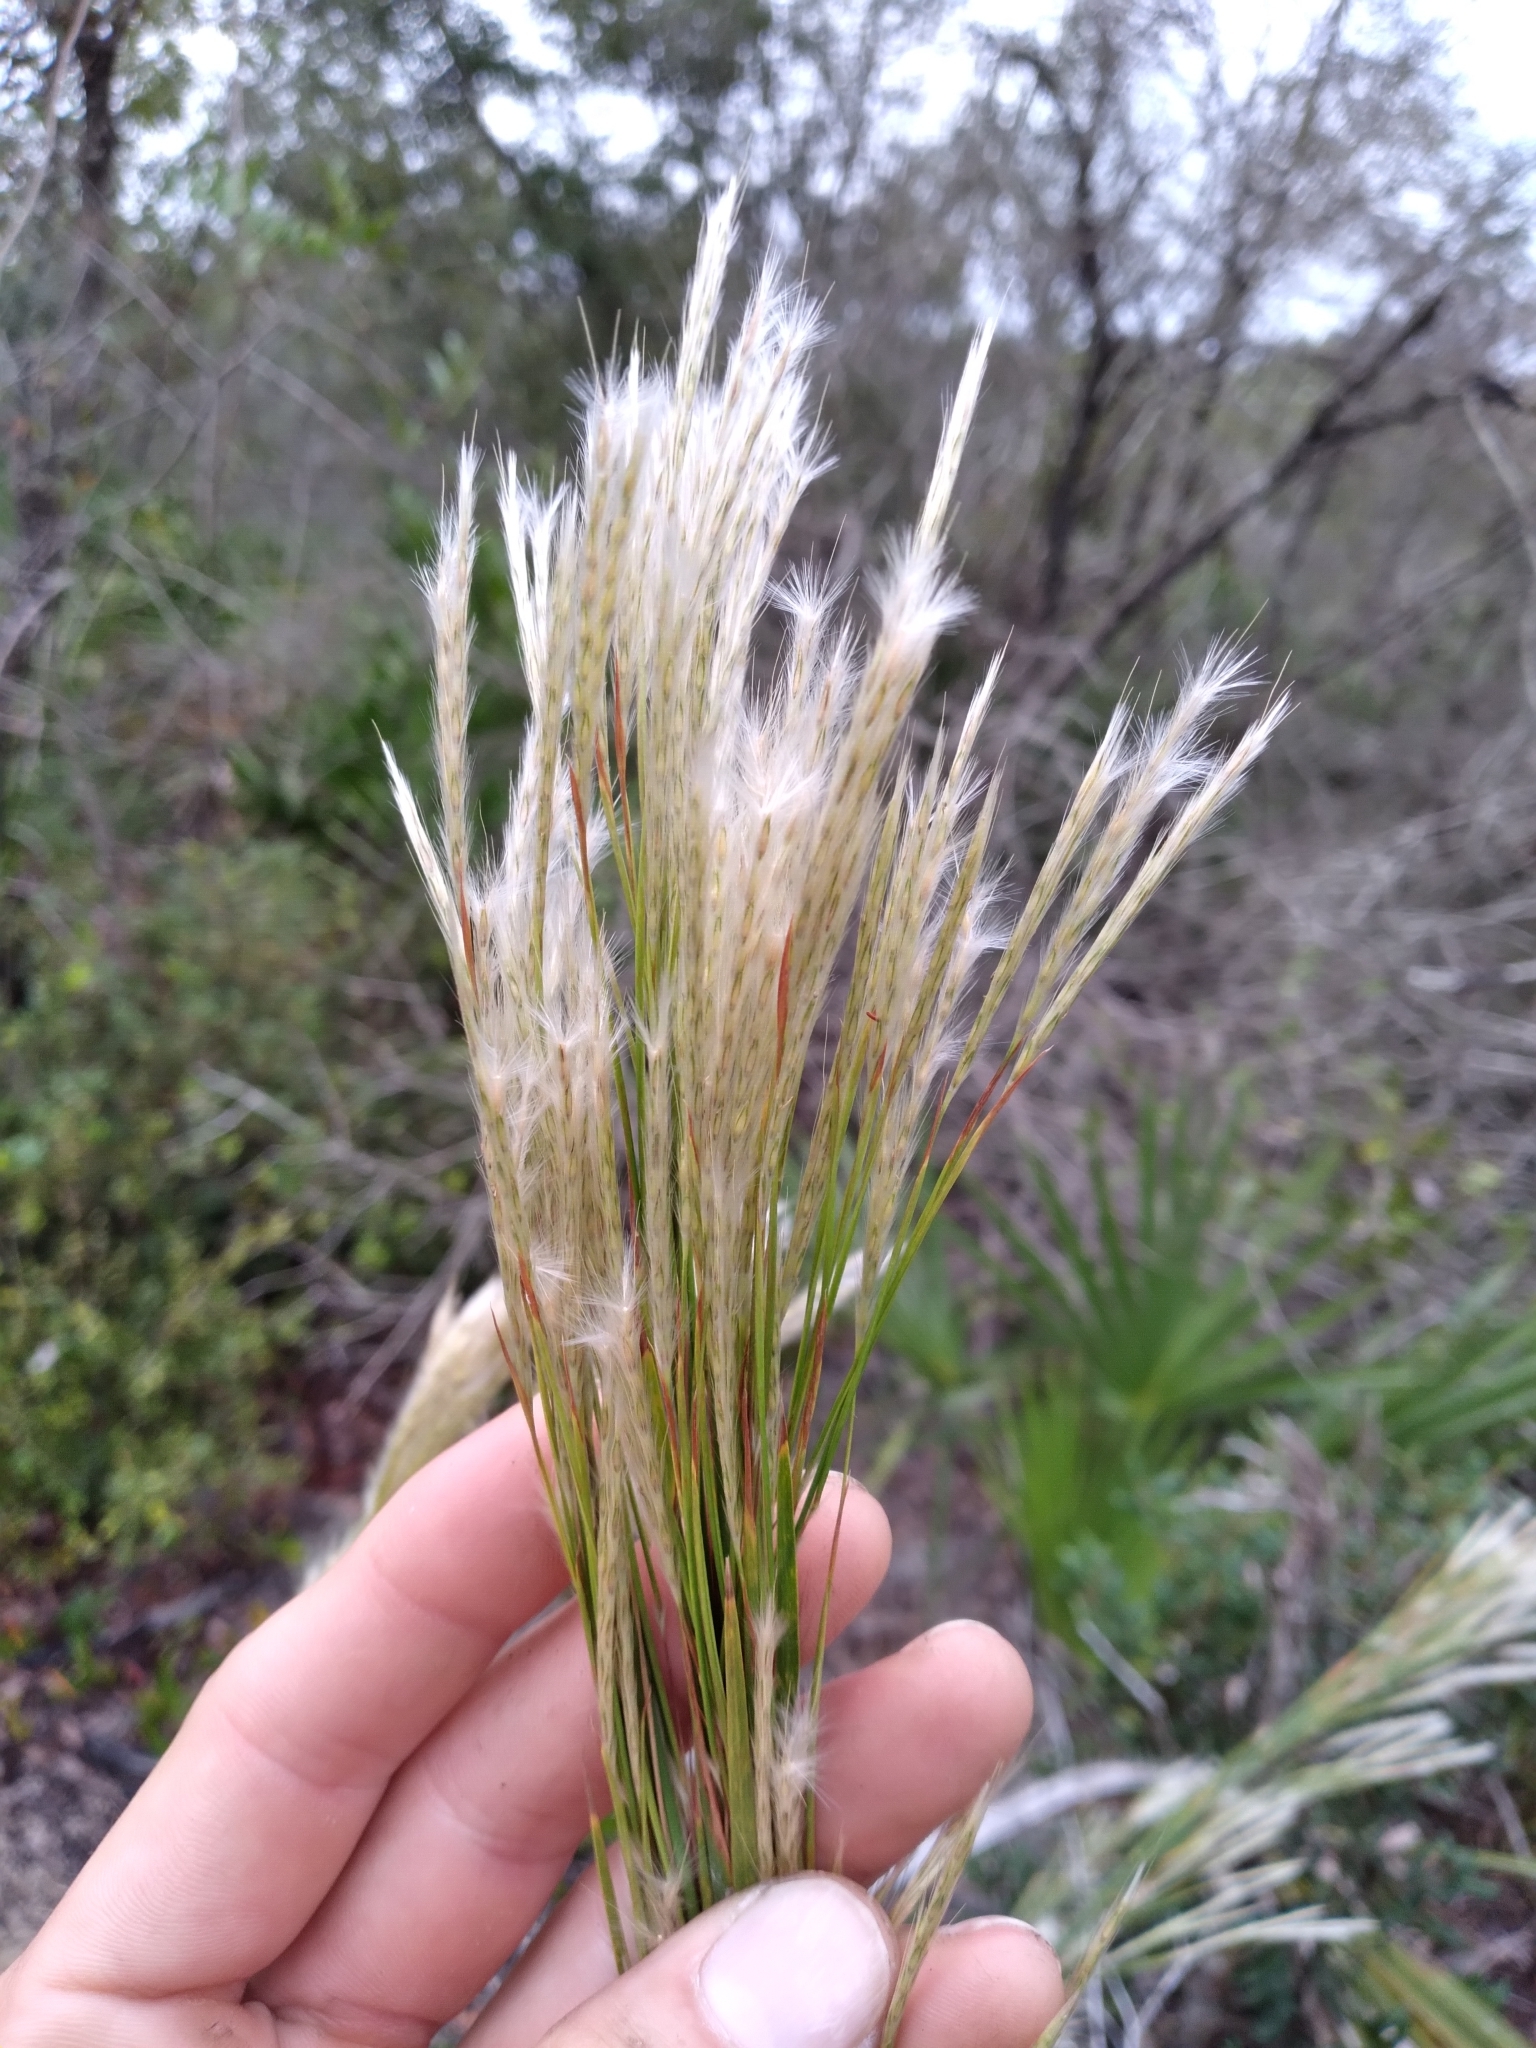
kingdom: Plantae
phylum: Tracheophyta
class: Liliopsida
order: Poales
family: Poaceae
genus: Andropogon
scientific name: Andropogon floridanus
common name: Florida bluestem
